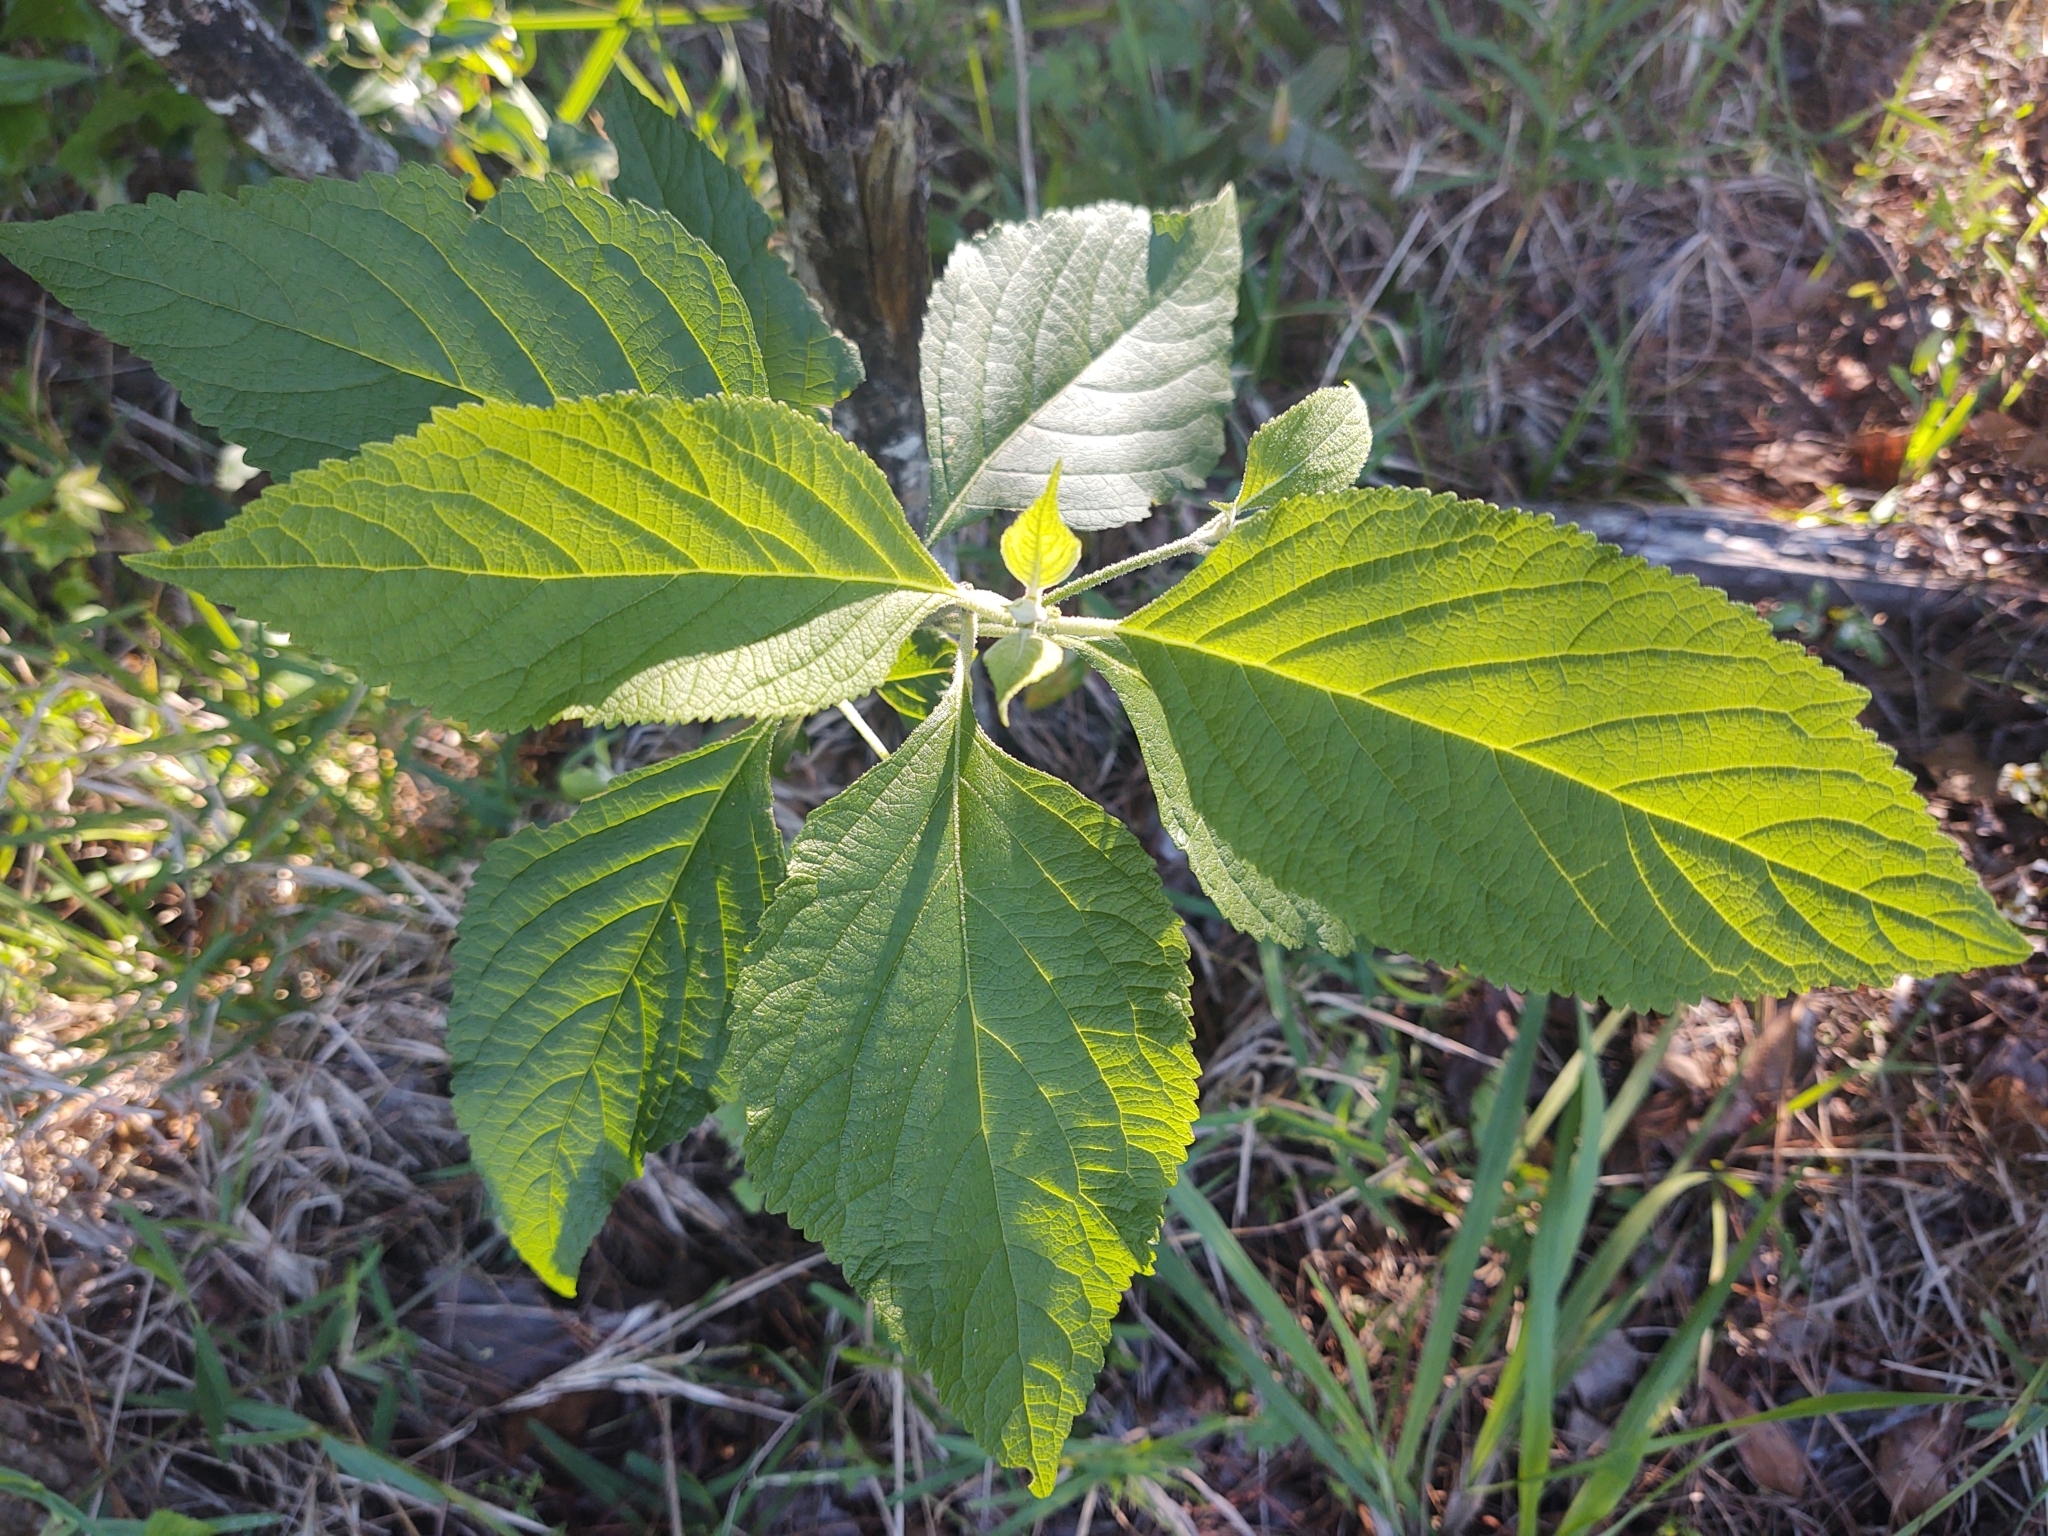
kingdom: Plantae
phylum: Tracheophyta
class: Magnoliopsida
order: Lamiales
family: Lamiaceae
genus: Callicarpa
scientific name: Callicarpa americana
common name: American beautyberry
